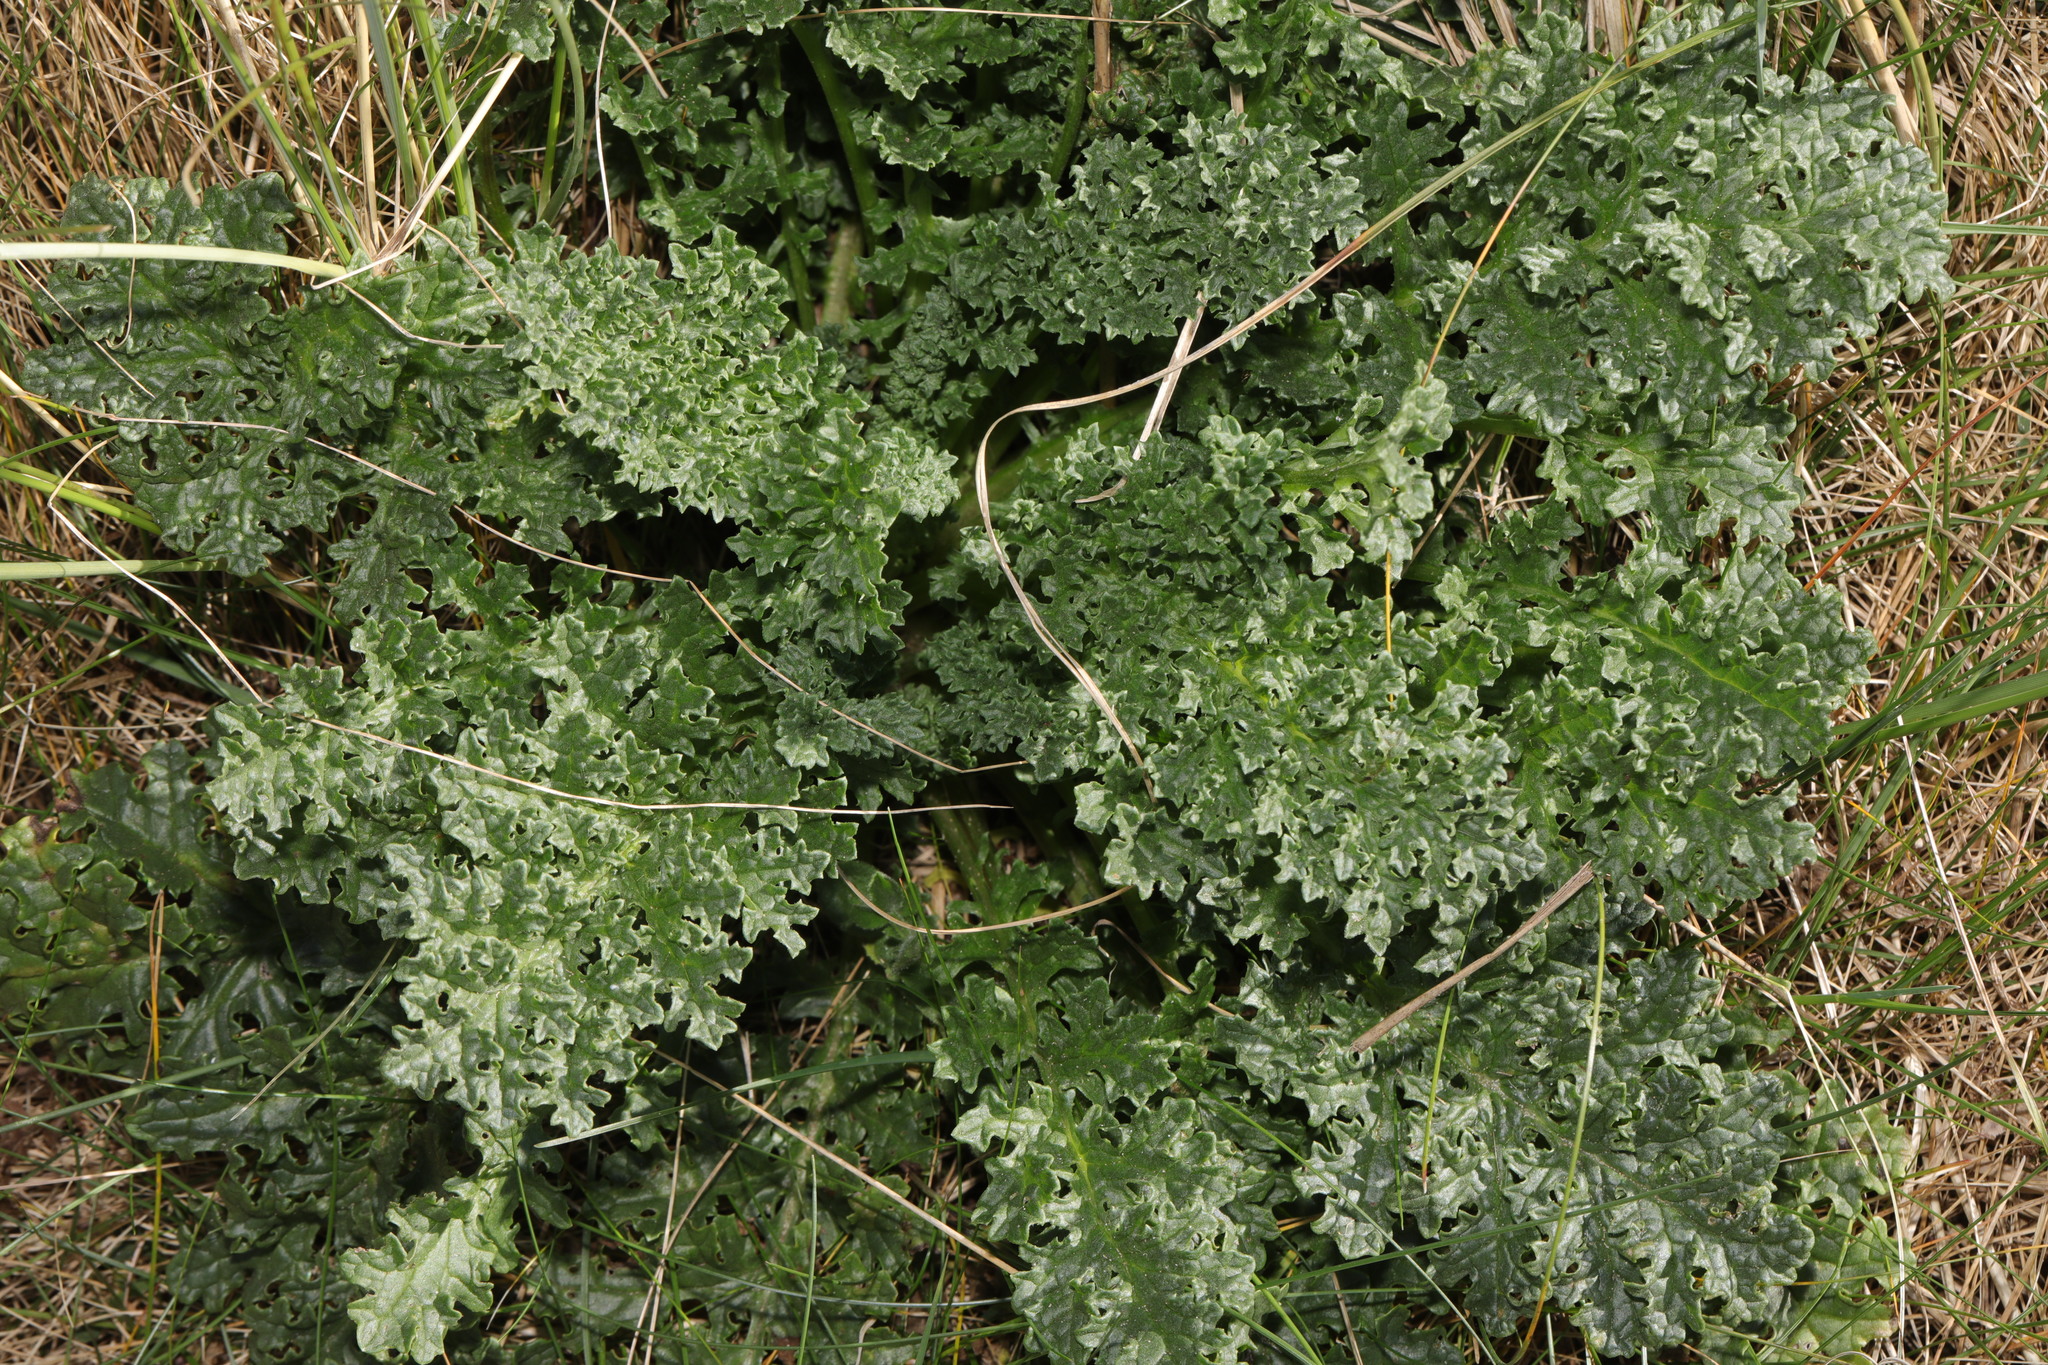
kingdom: Plantae
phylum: Tracheophyta
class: Magnoliopsida
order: Asterales
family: Asteraceae
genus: Jacobaea
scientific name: Jacobaea vulgaris
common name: Stinking willie
